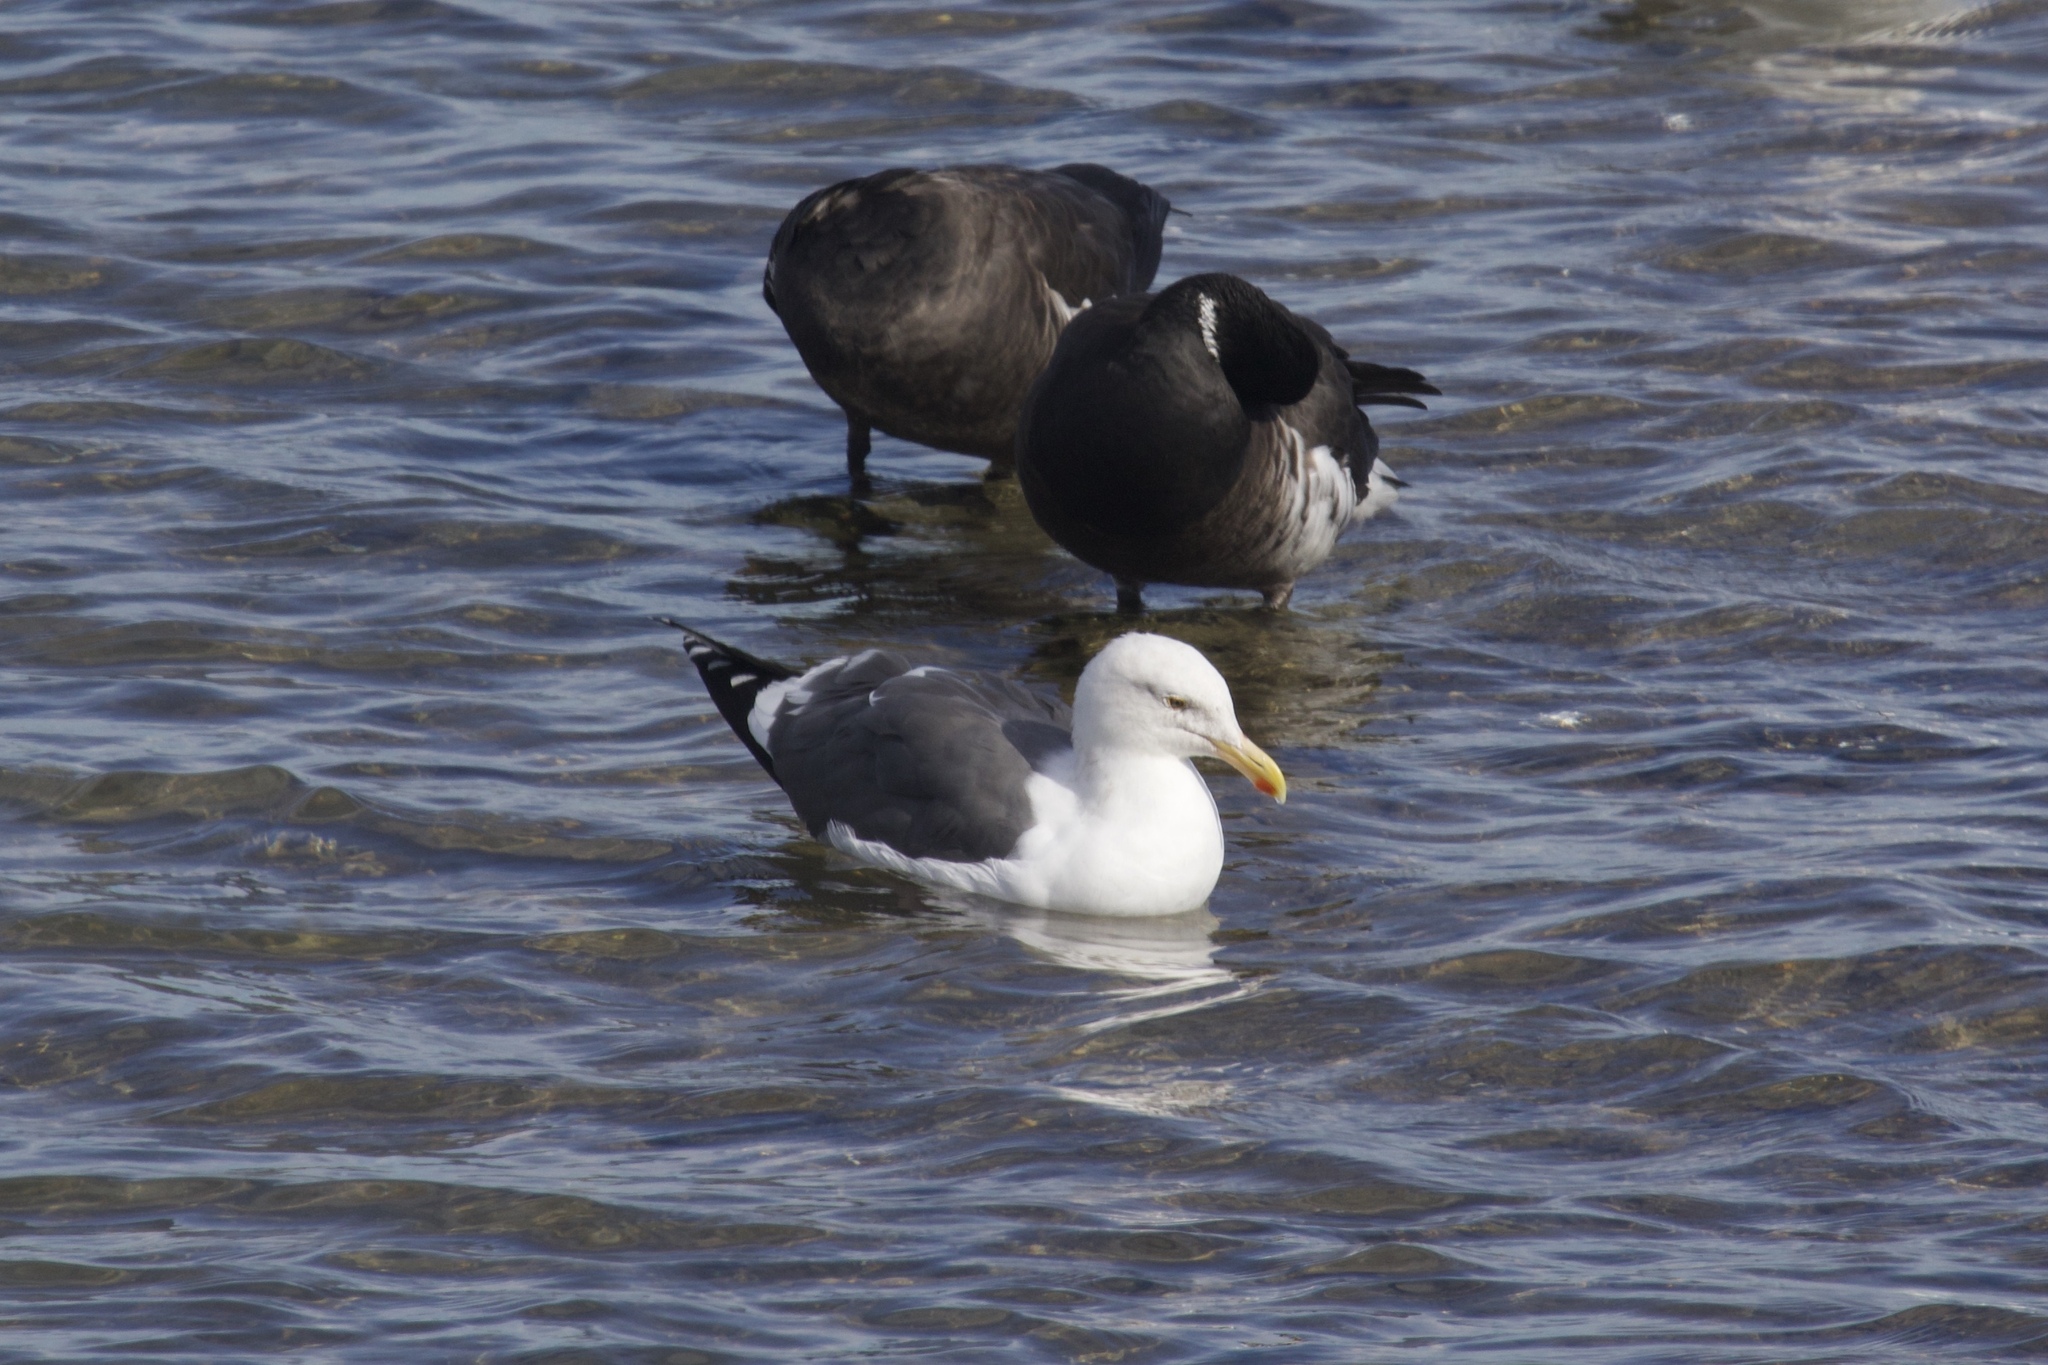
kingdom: Animalia
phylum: Chordata
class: Aves
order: Charadriiformes
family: Laridae
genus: Larus
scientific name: Larus occidentalis
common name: Western gull
